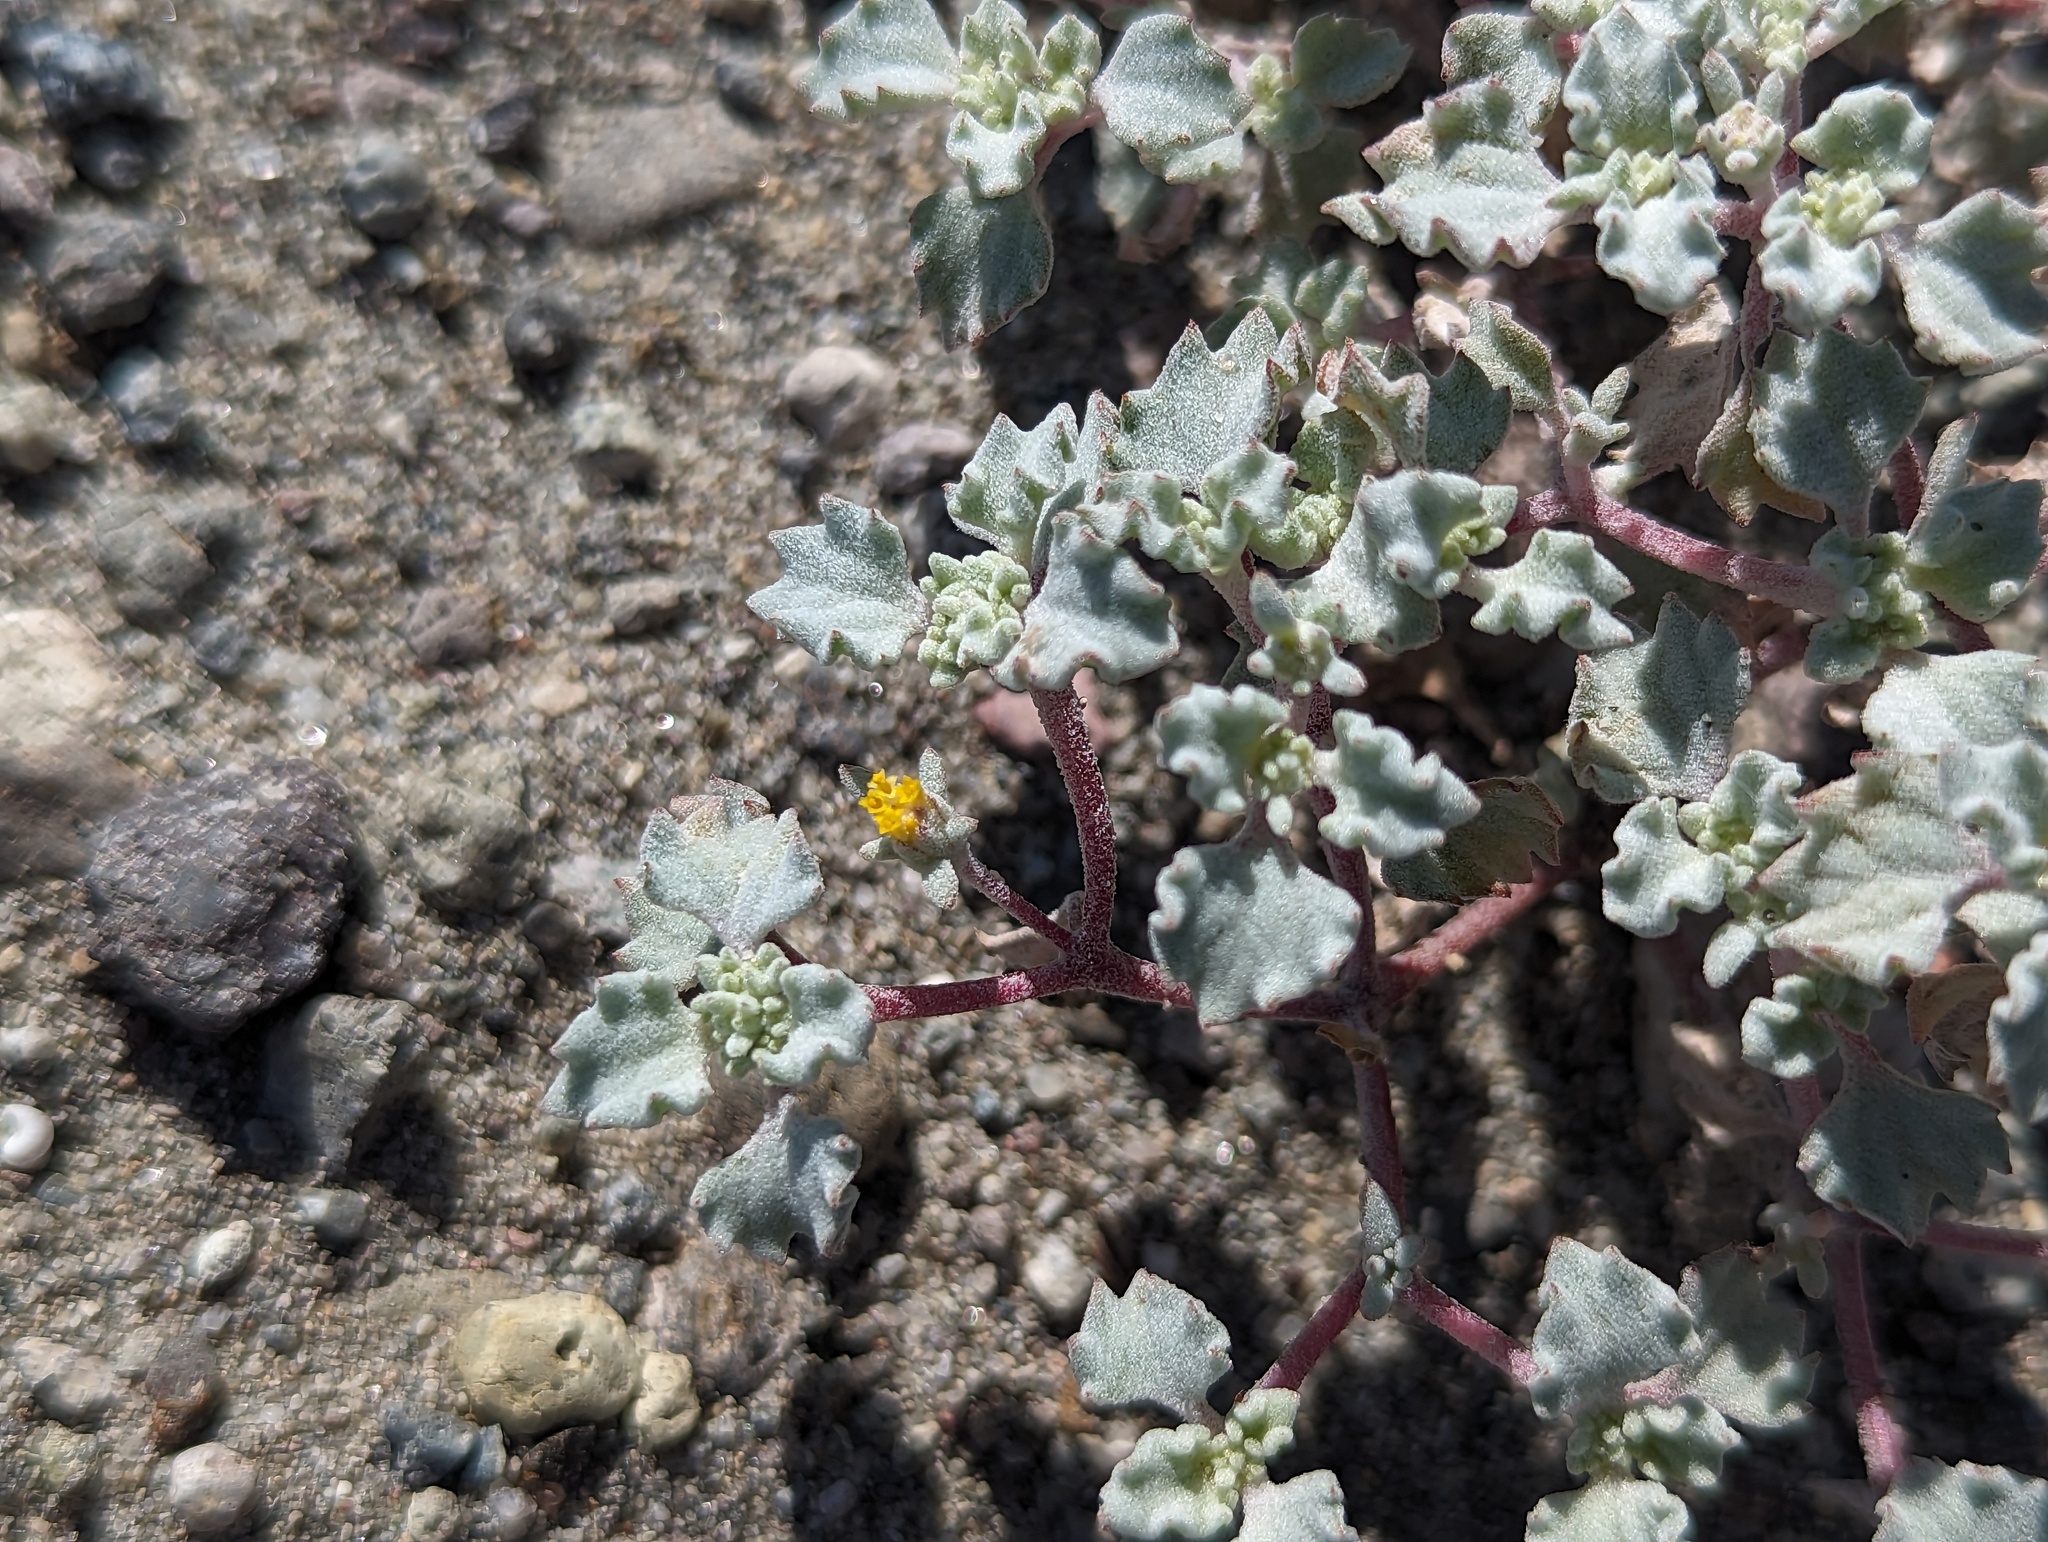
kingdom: Plantae
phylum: Tracheophyta
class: Magnoliopsida
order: Asterales
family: Asteraceae
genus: Psathyrotes
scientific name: Psathyrotes annua
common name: Mealy rosettes
